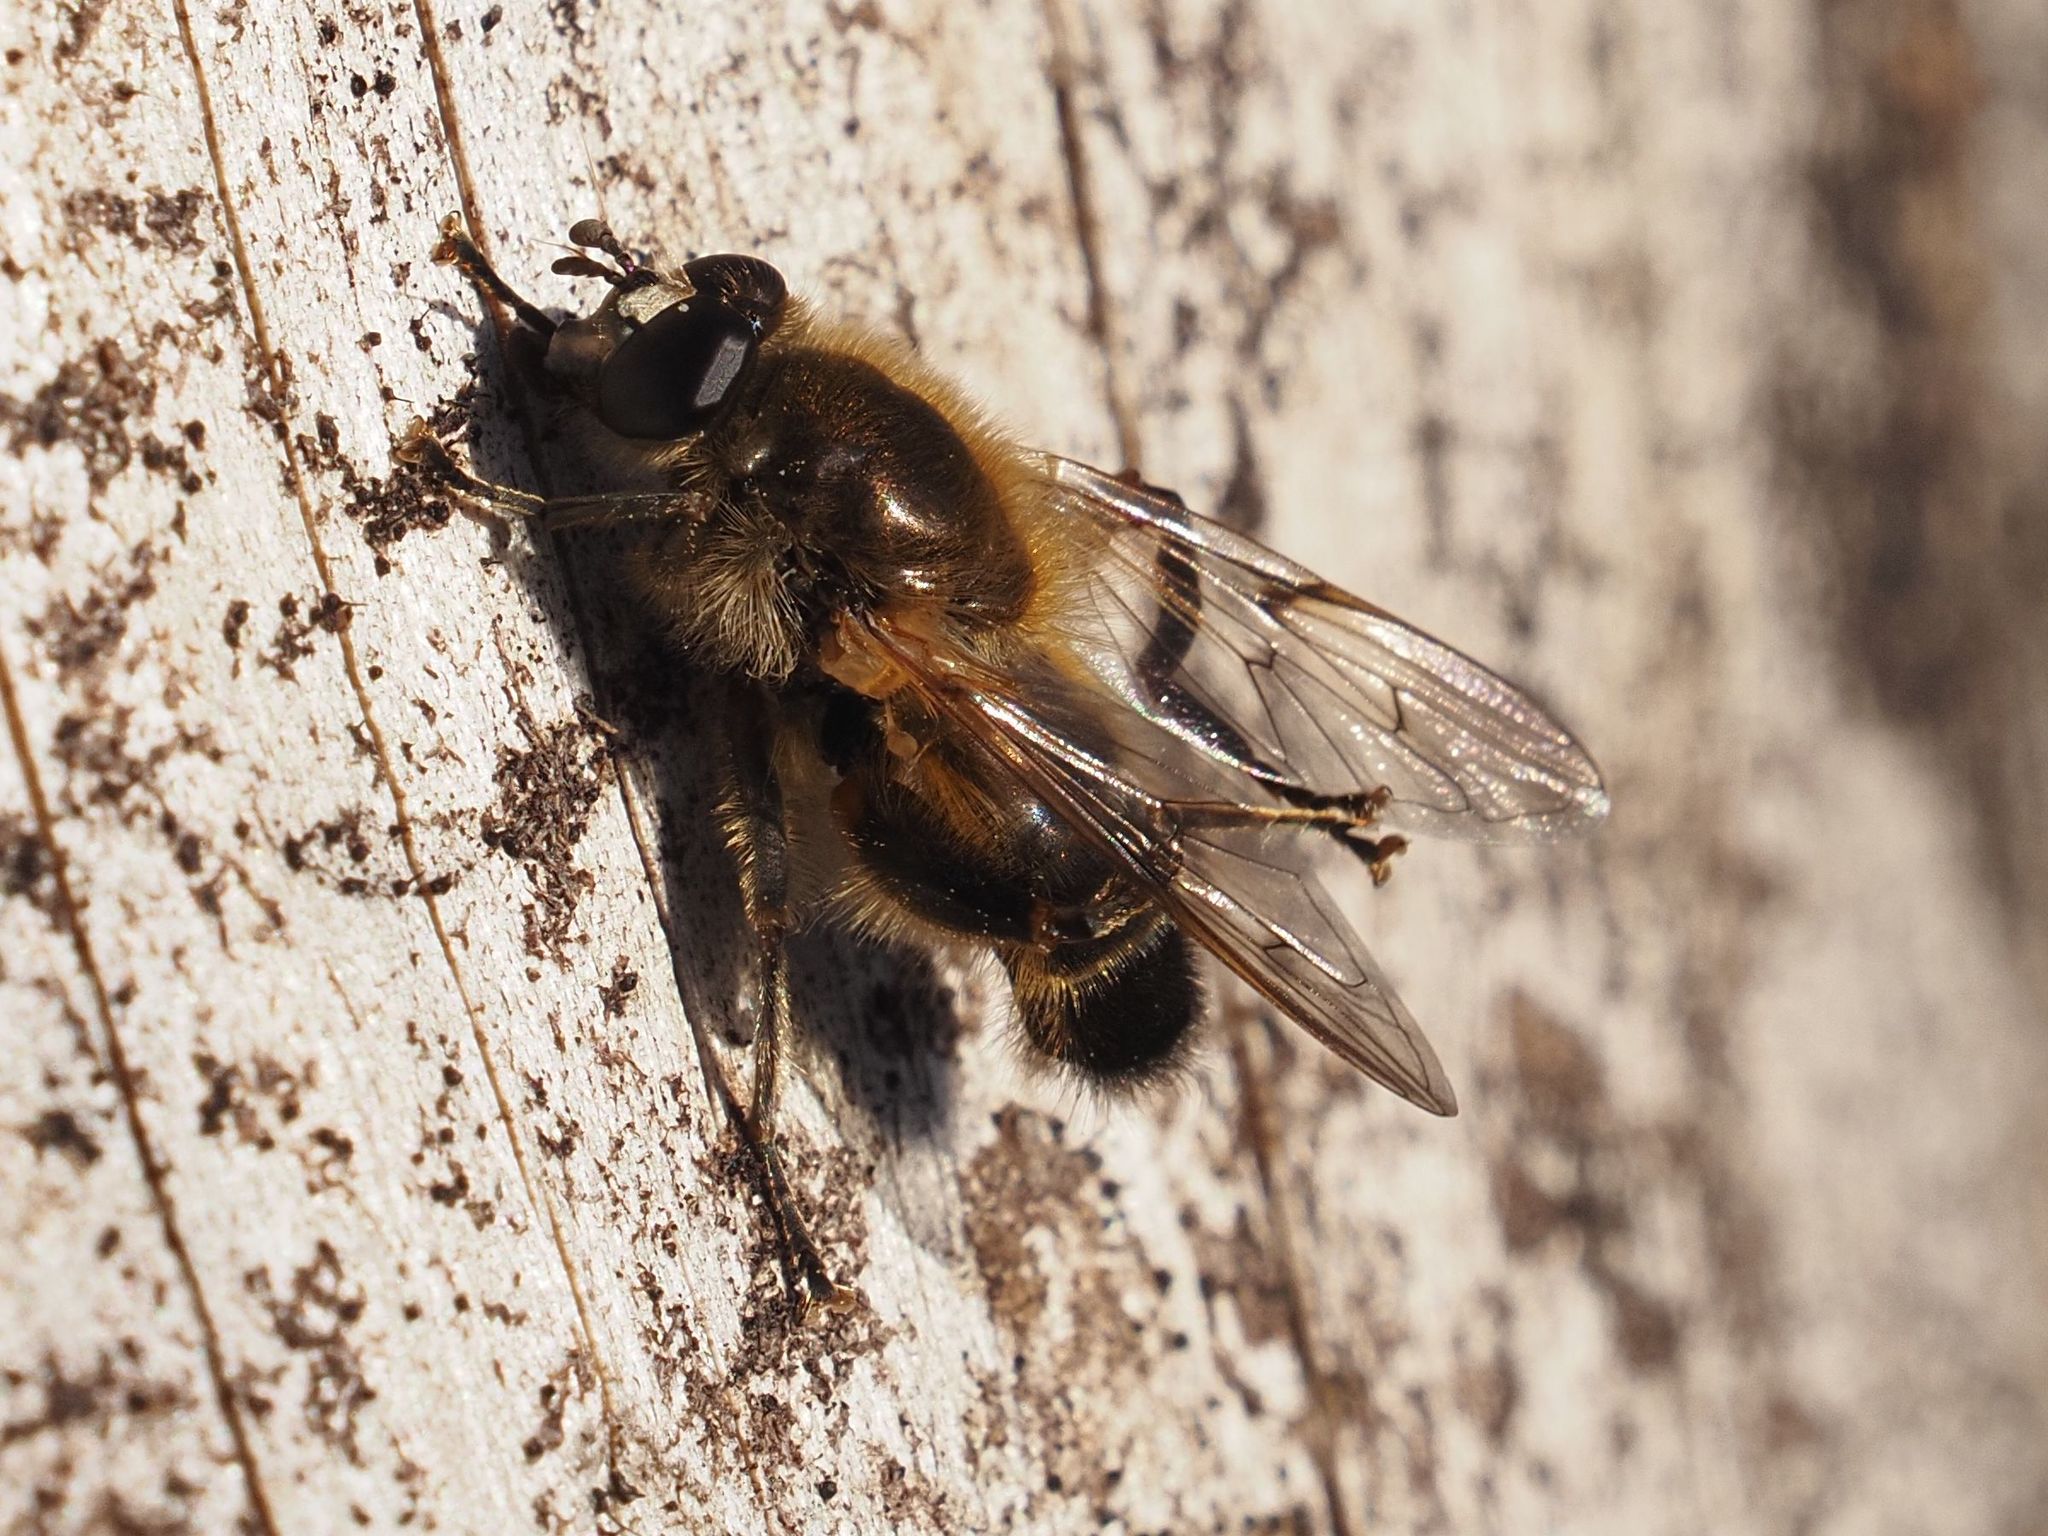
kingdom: Animalia
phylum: Arthropoda
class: Insecta
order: Diptera
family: Syrphidae
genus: Brachypalpus
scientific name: Brachypalpus valgus
